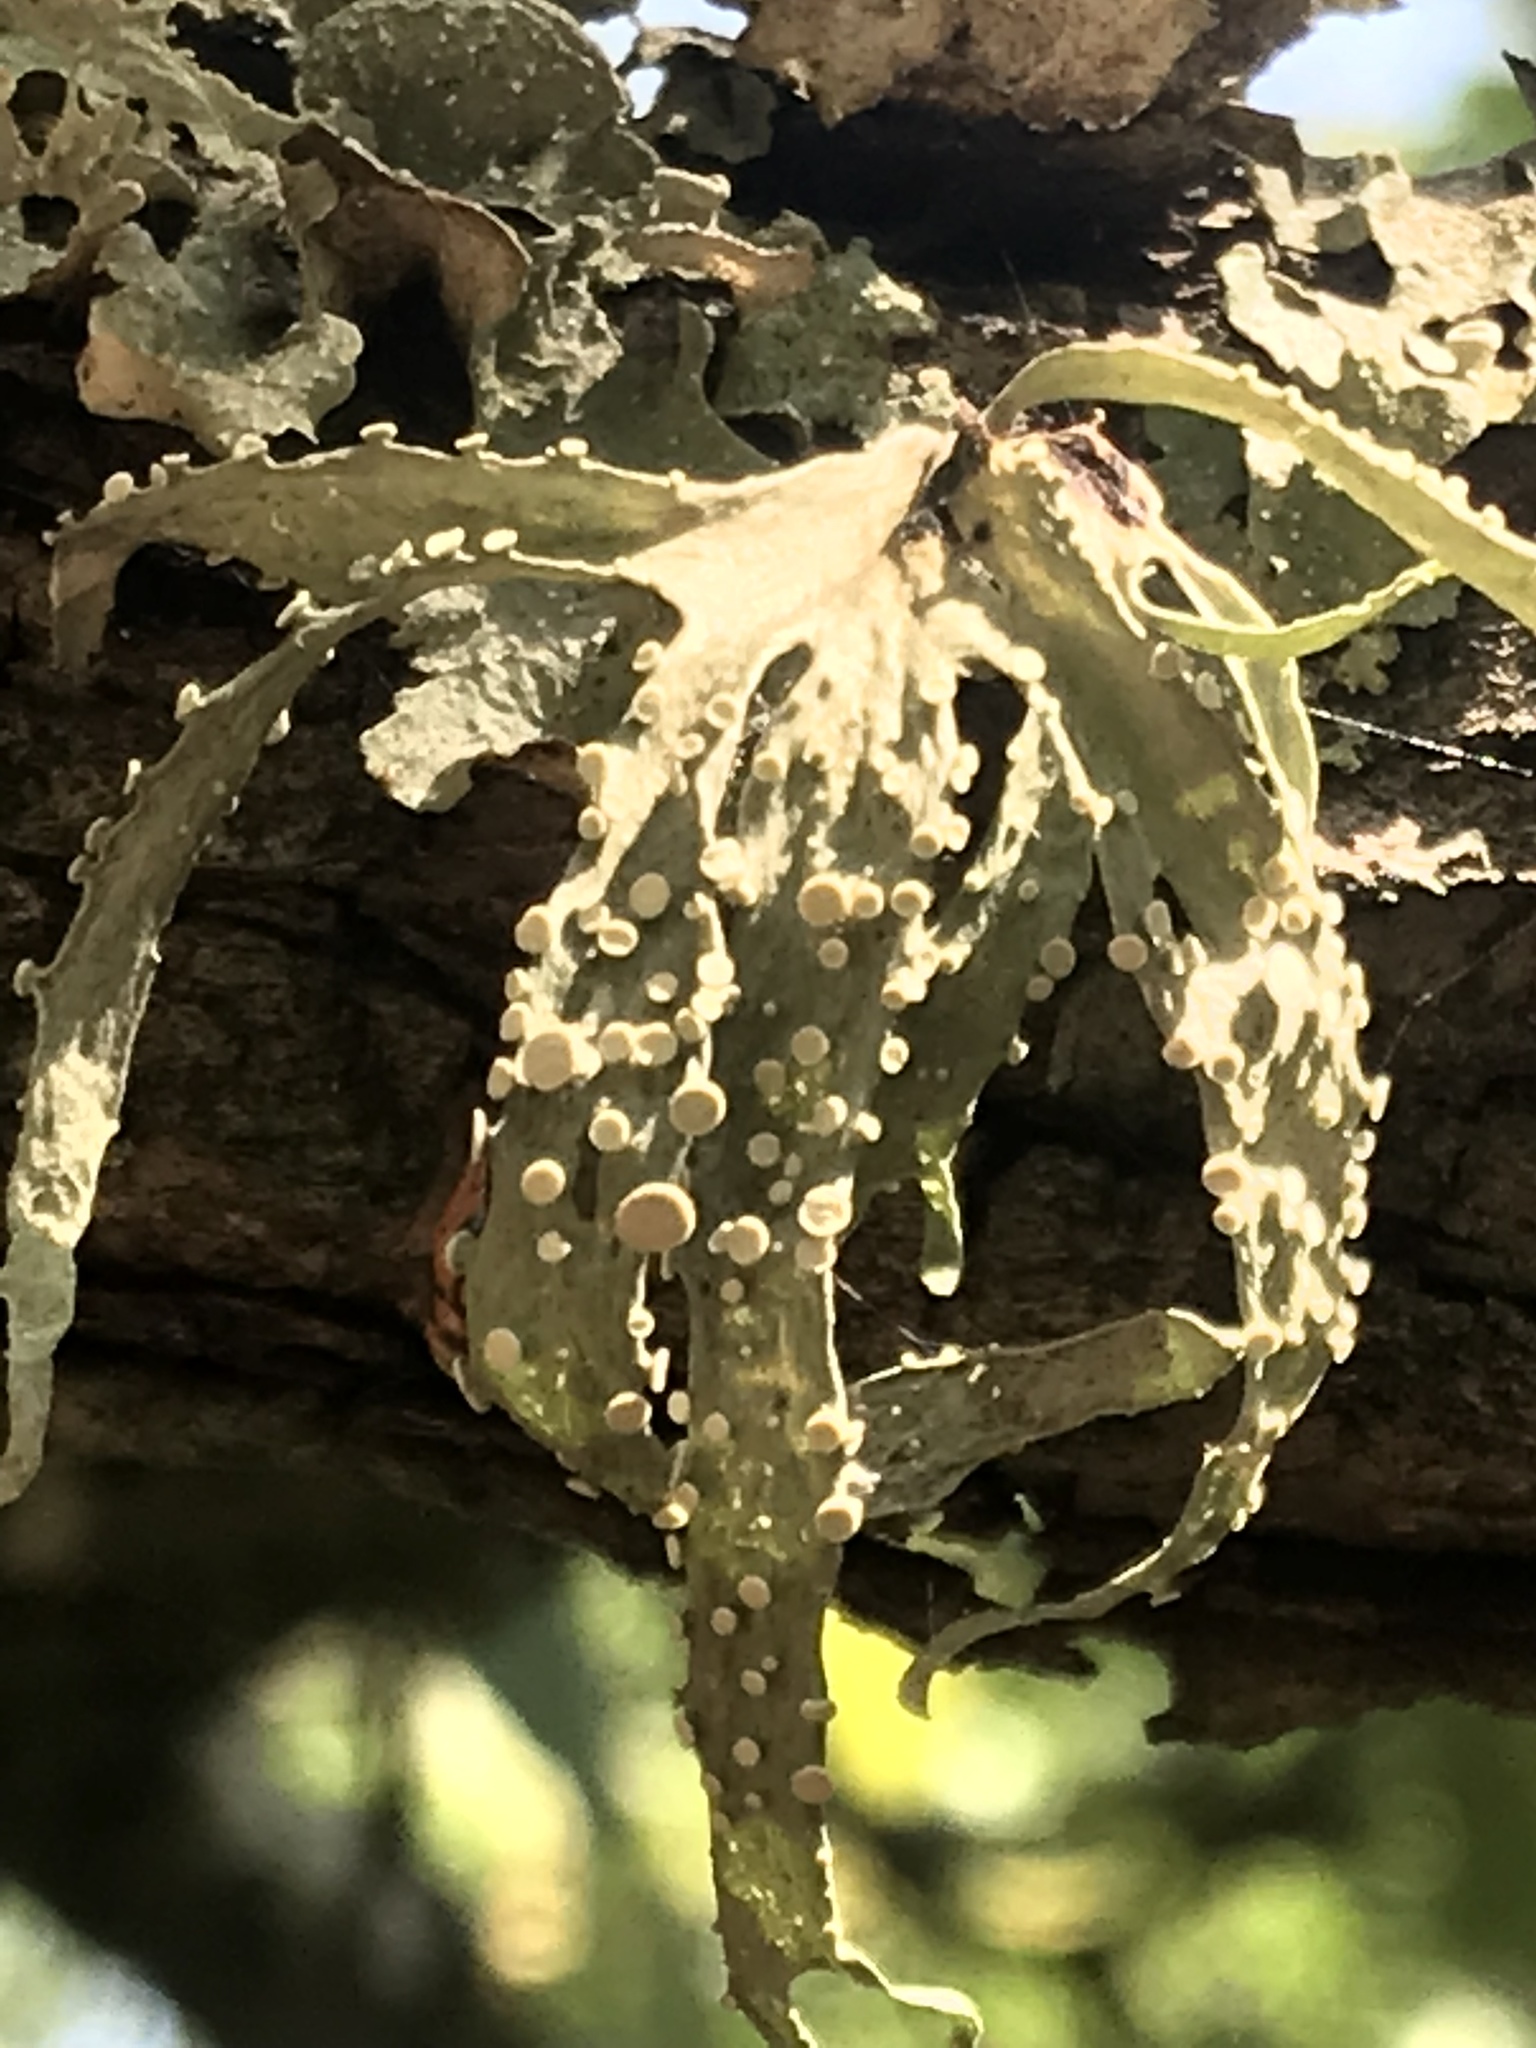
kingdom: Fungi
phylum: Ascomycota
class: Lecanoromycetes
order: Lecanorales
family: Ramalinaceae
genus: Ramalina
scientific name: Ramalina celastri
